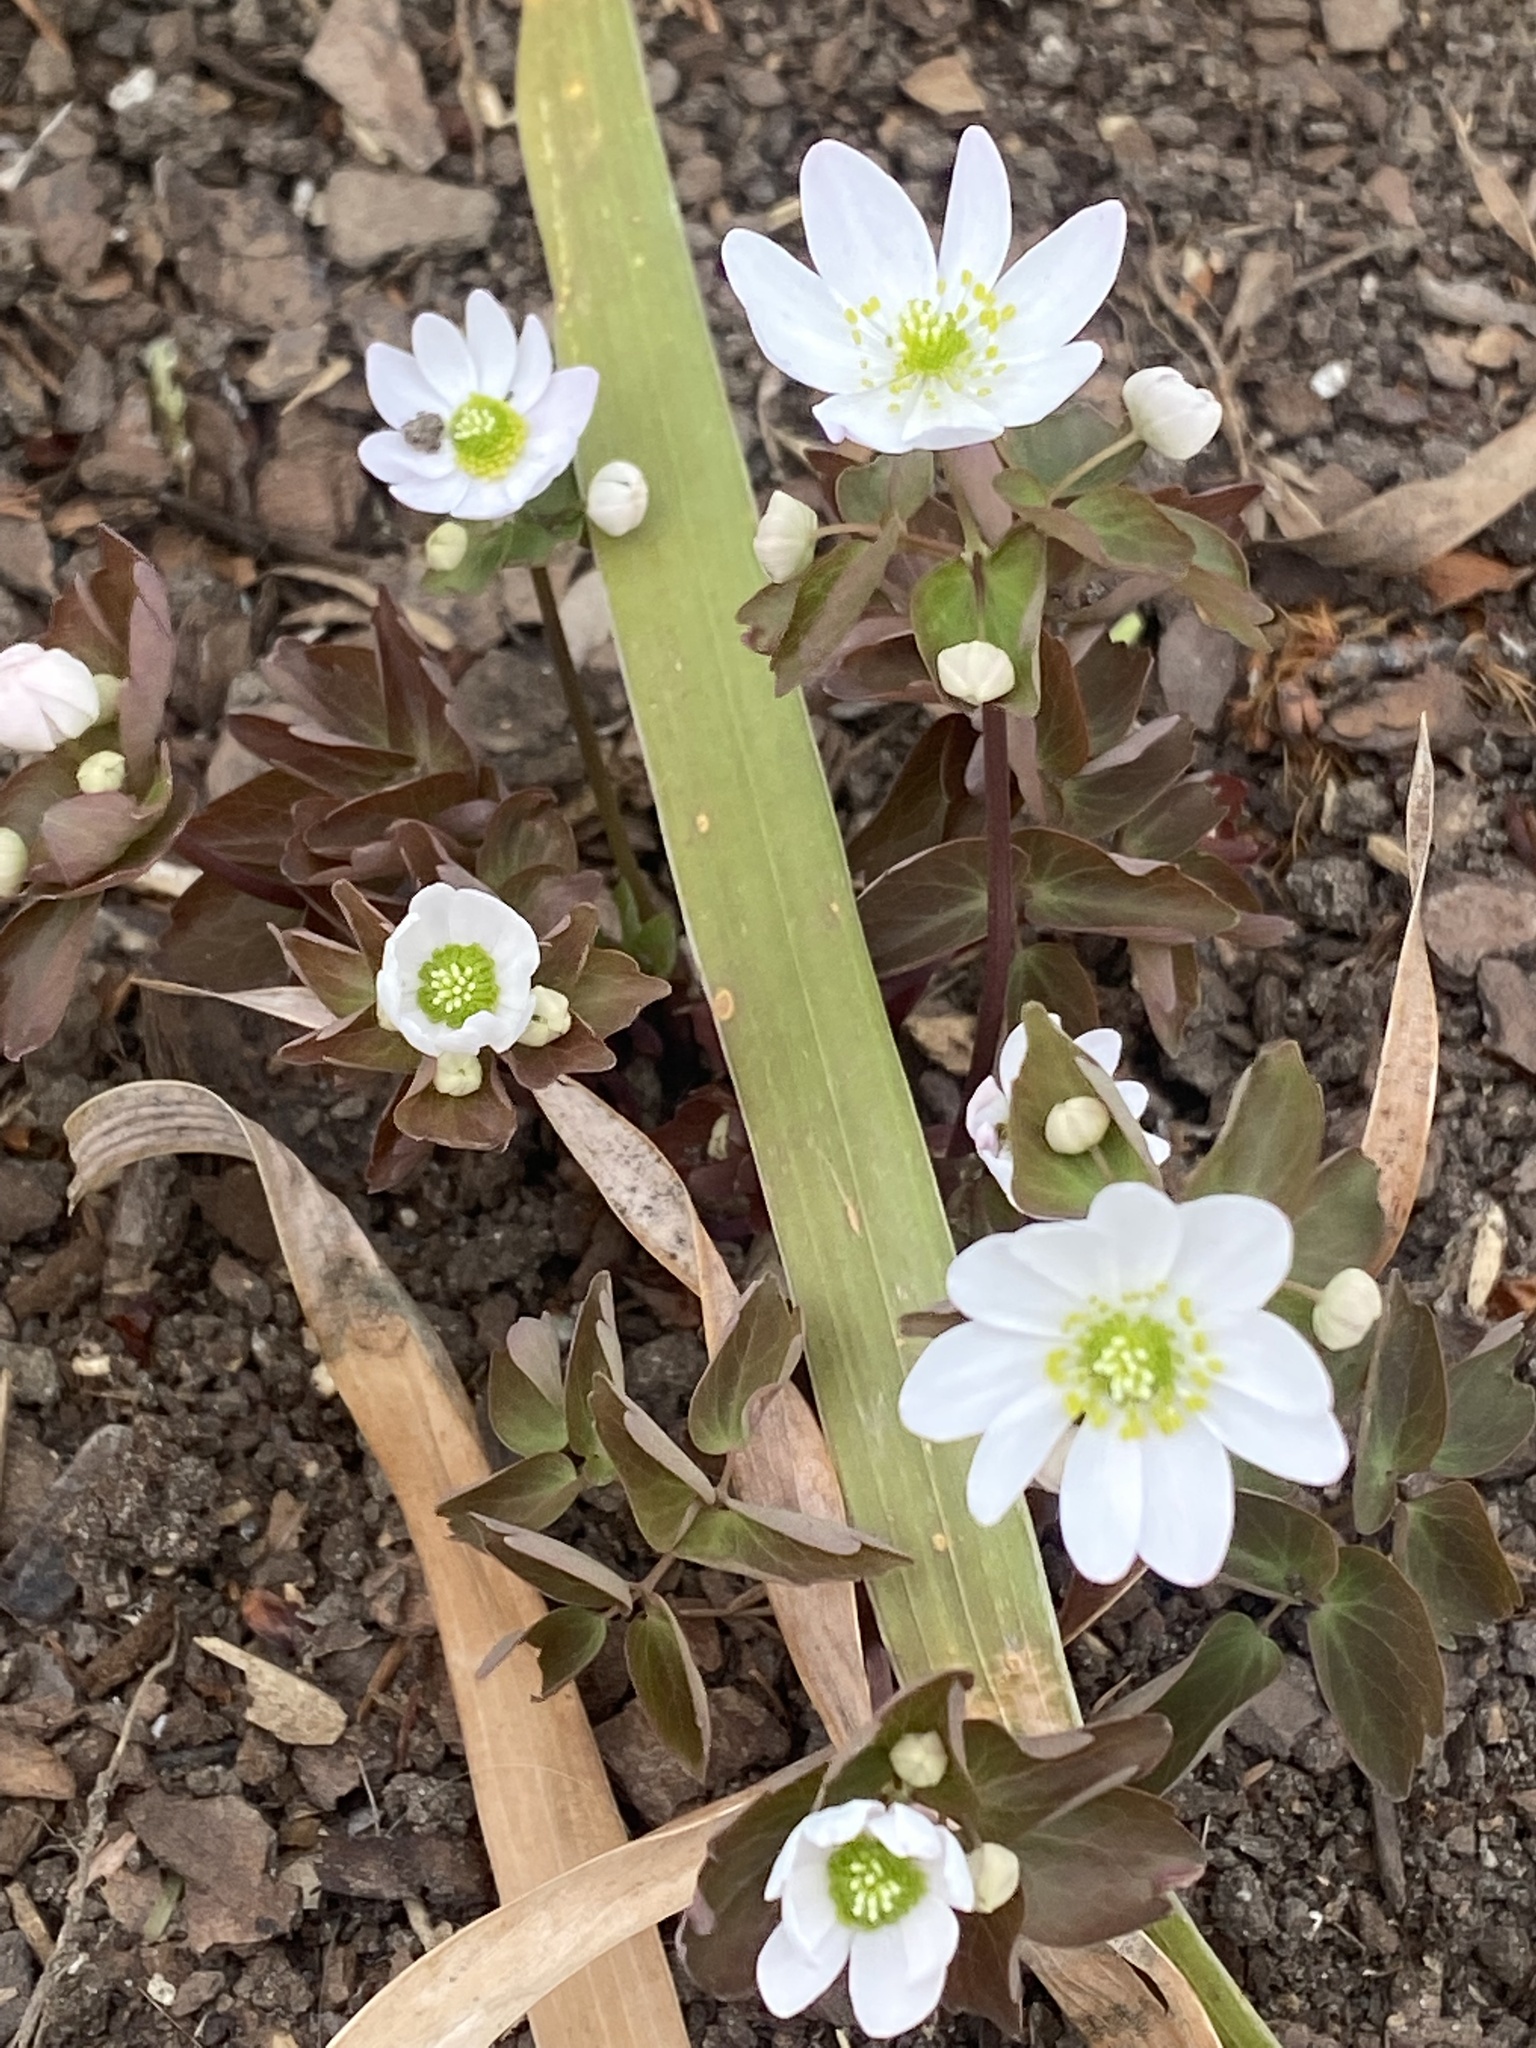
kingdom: Plantae
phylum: Tracheophyta
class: Magnoliopsida
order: Ranunculales
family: Ranunculaceae
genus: Thalictrum
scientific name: Thalictrum thalictroides
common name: Rue-anemone
